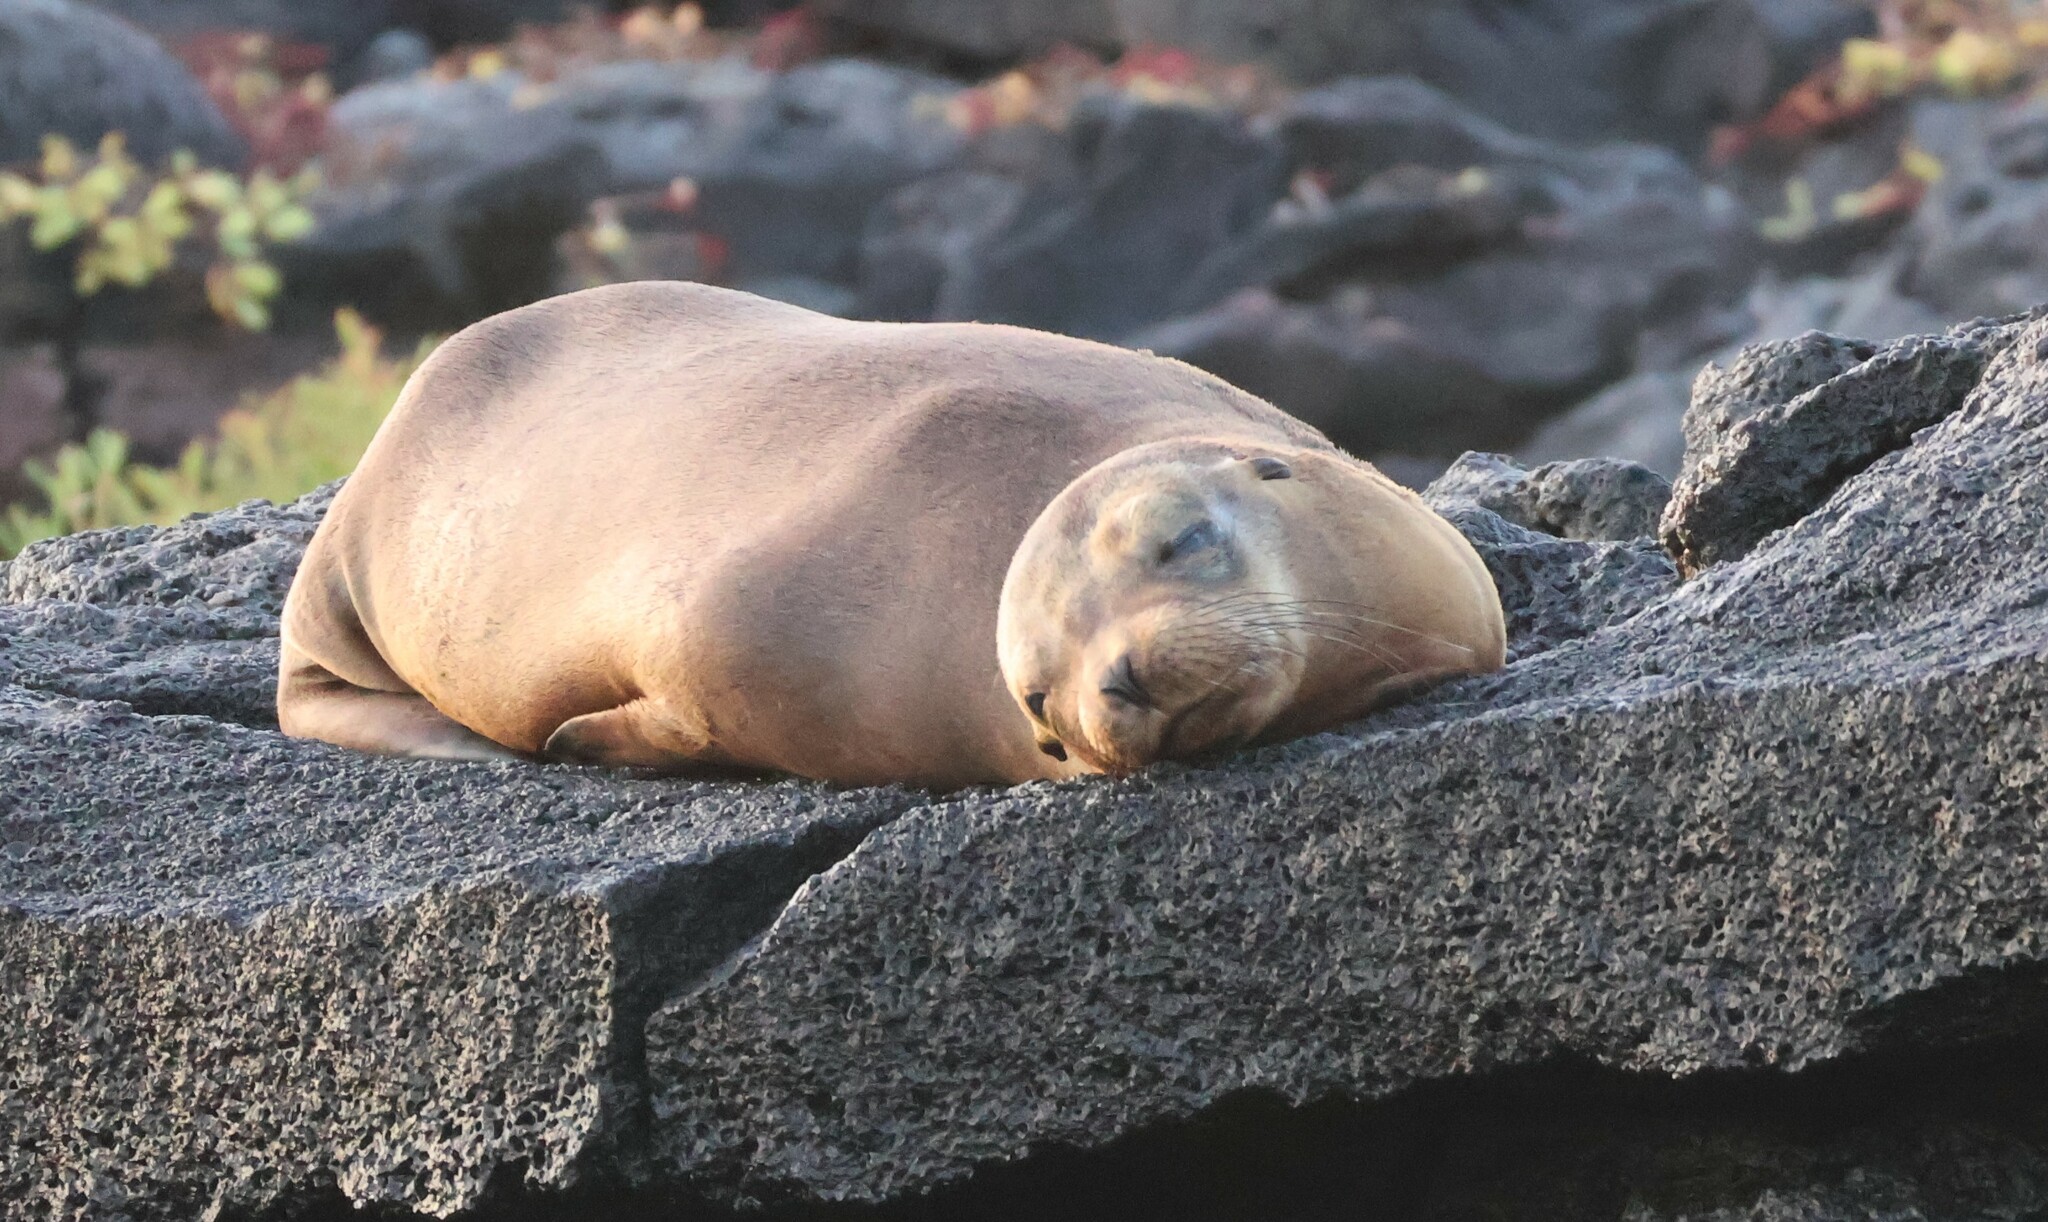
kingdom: Animalia
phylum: Chordata
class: Mammalia
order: Carnivora
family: Otariidae
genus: Zalophus
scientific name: Zalophus wollebaeki
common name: Galapagos sea lion
